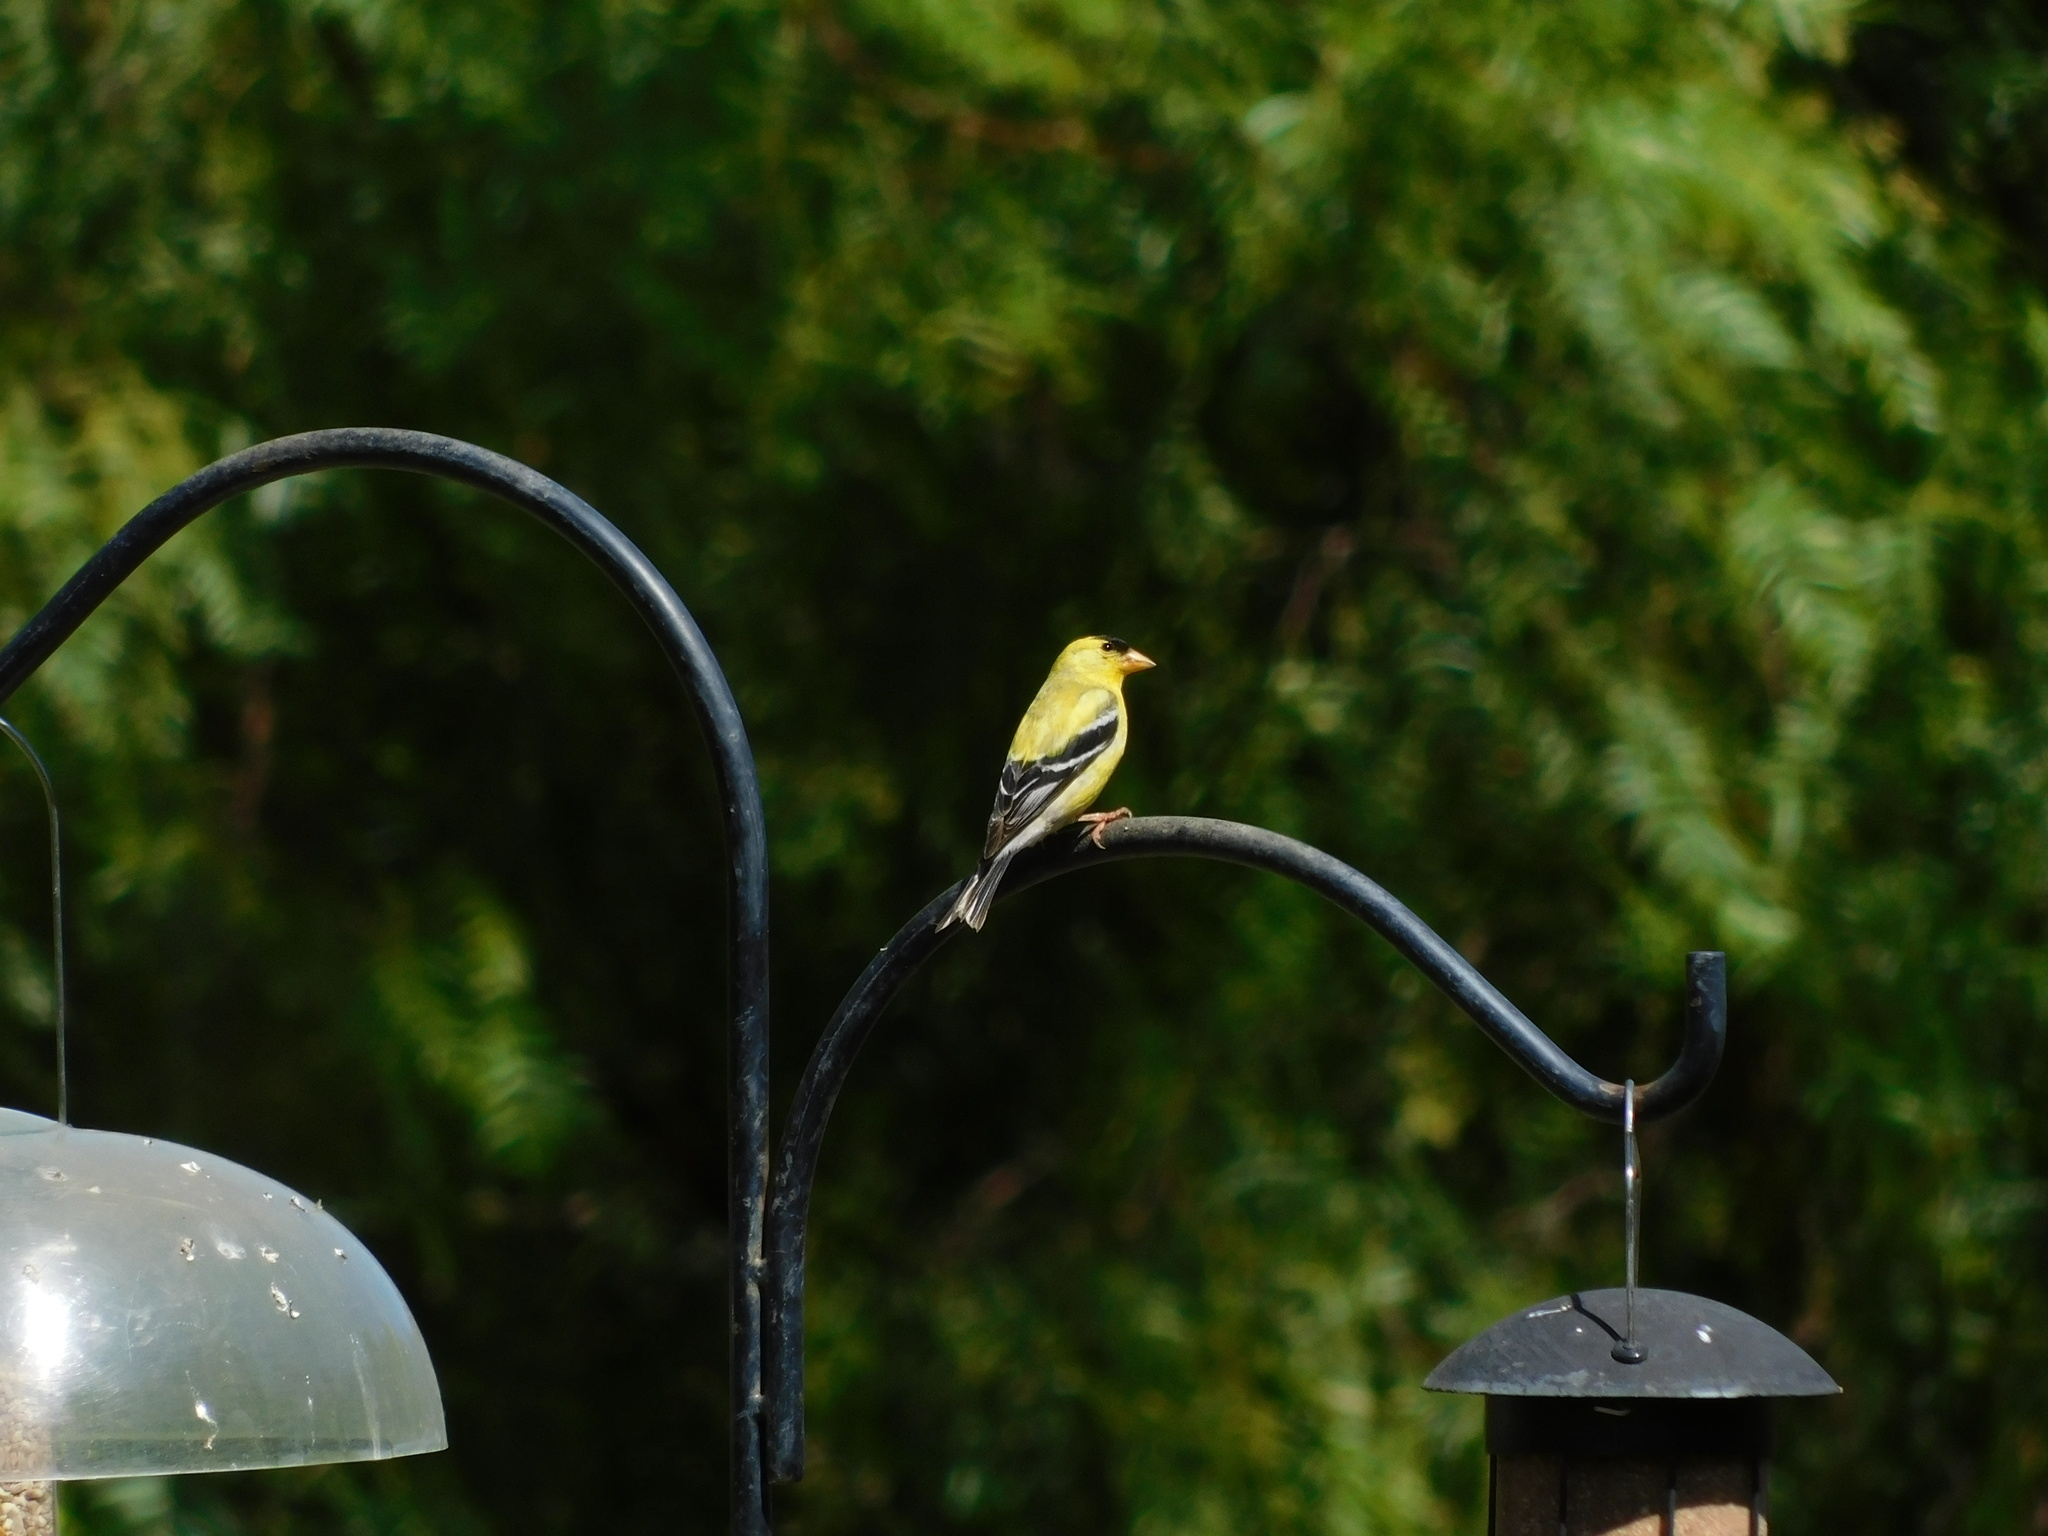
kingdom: Animalia
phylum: Chordata
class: Aves
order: Passeriformes
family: Fringillidae
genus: Spinus
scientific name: Spinus tristis
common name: American goldfinch
